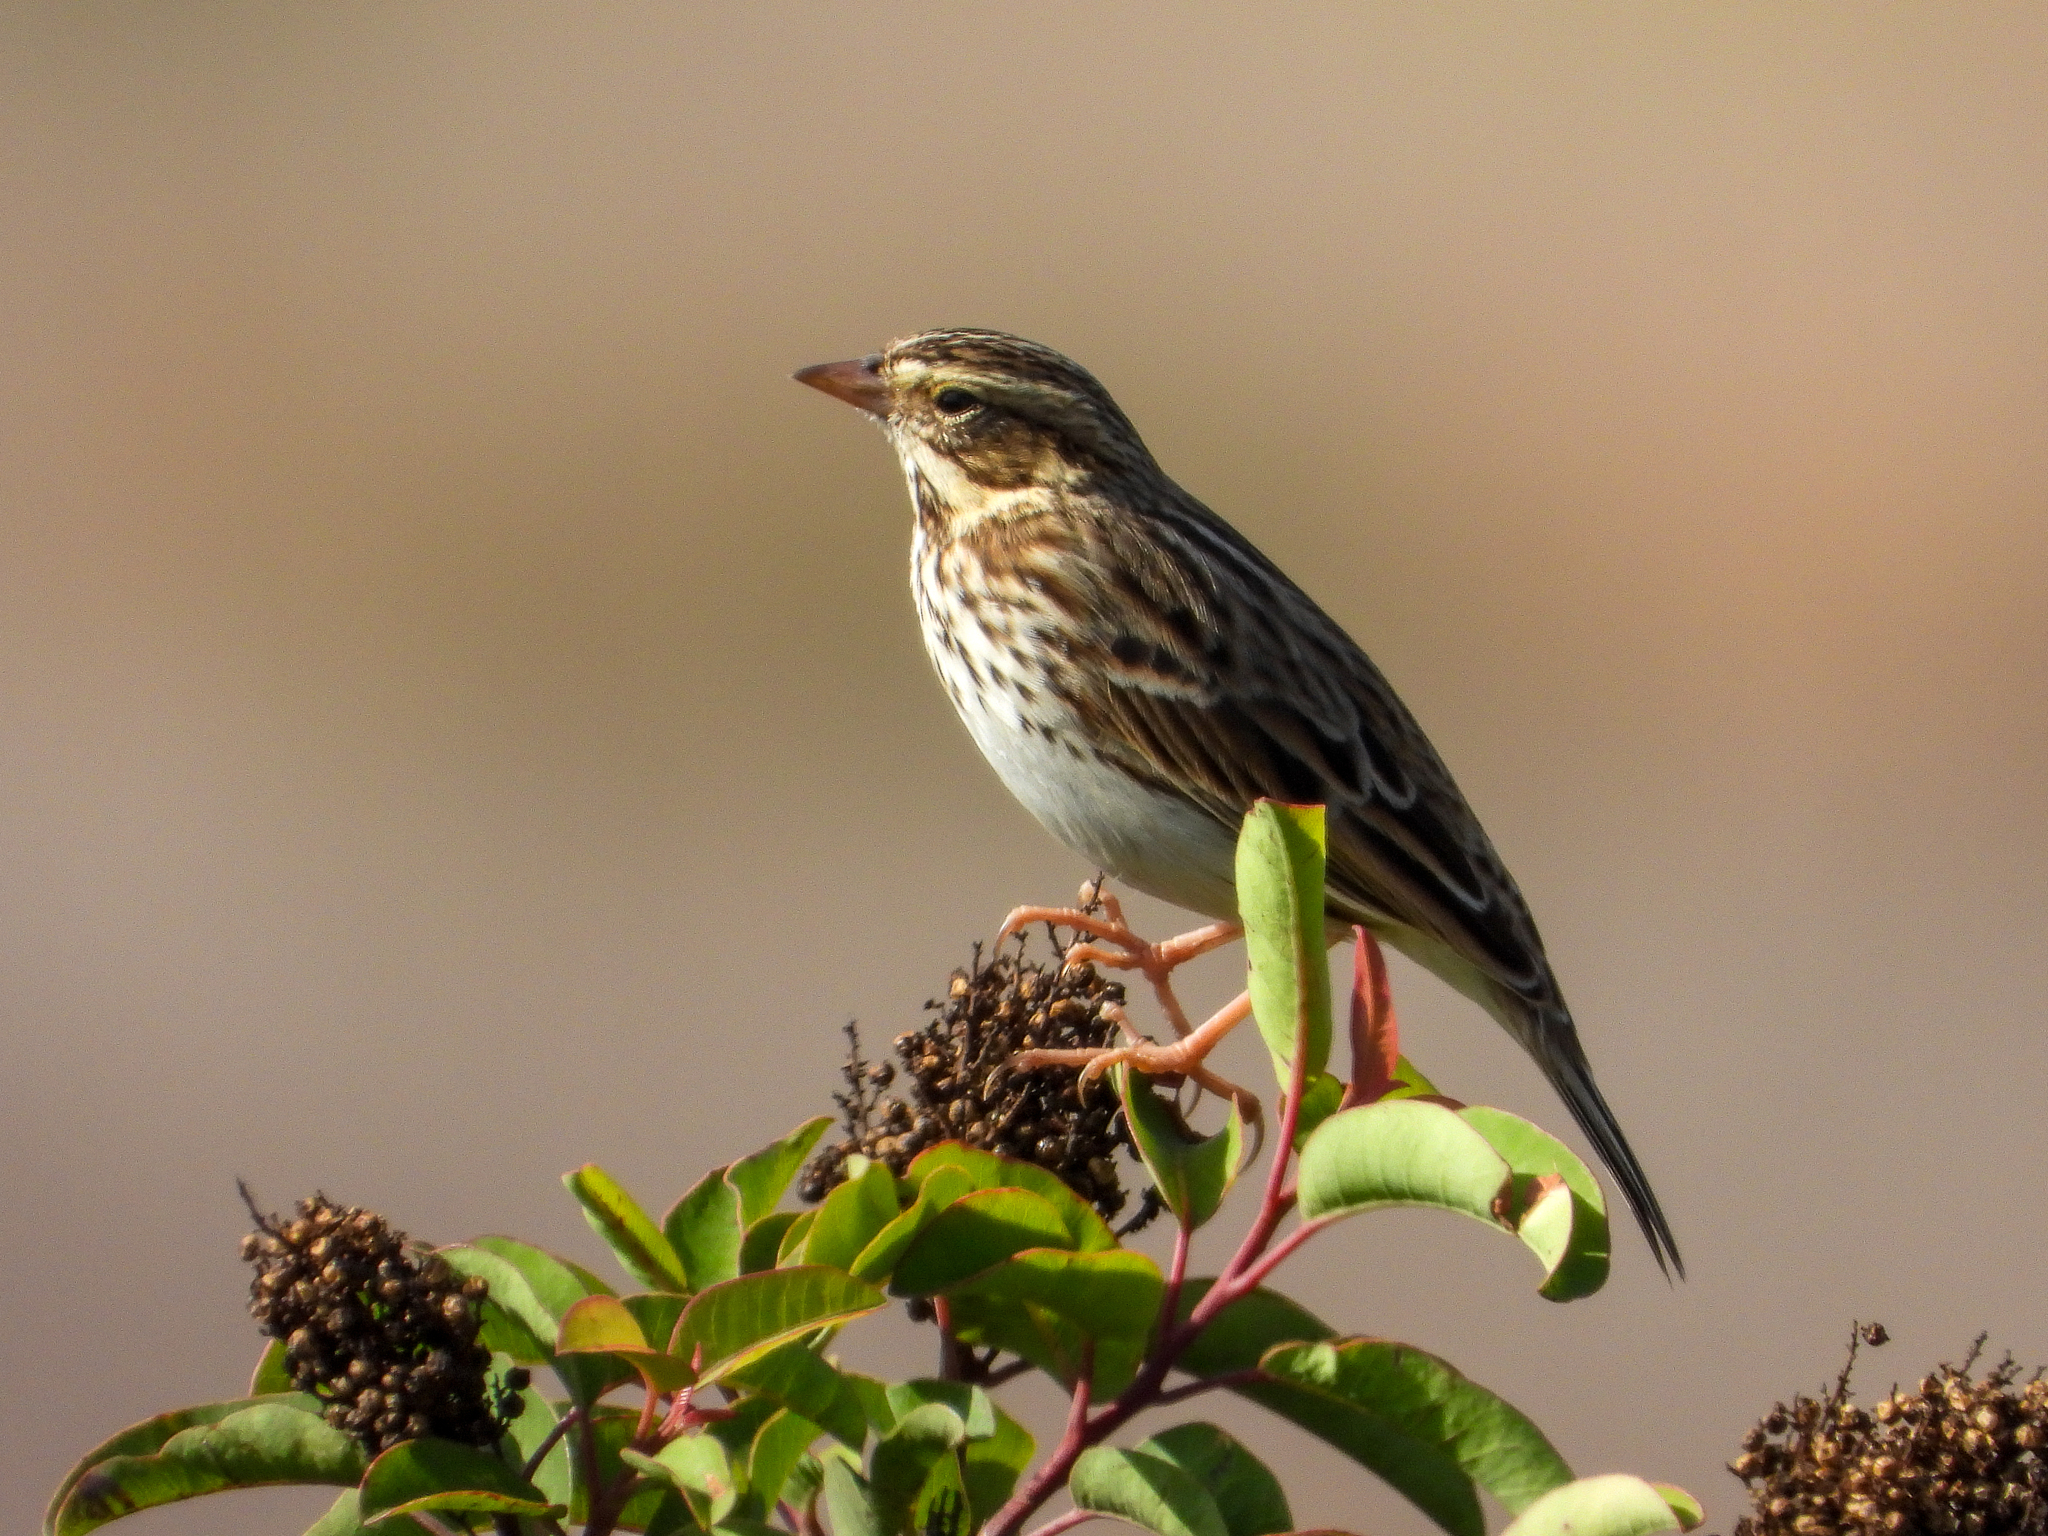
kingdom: Animalia
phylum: Chordata
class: Aves
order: Passeriformes
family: Passerellidae
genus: Passerculus
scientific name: Passerculus sandwichensis
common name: Savannah sparrow
